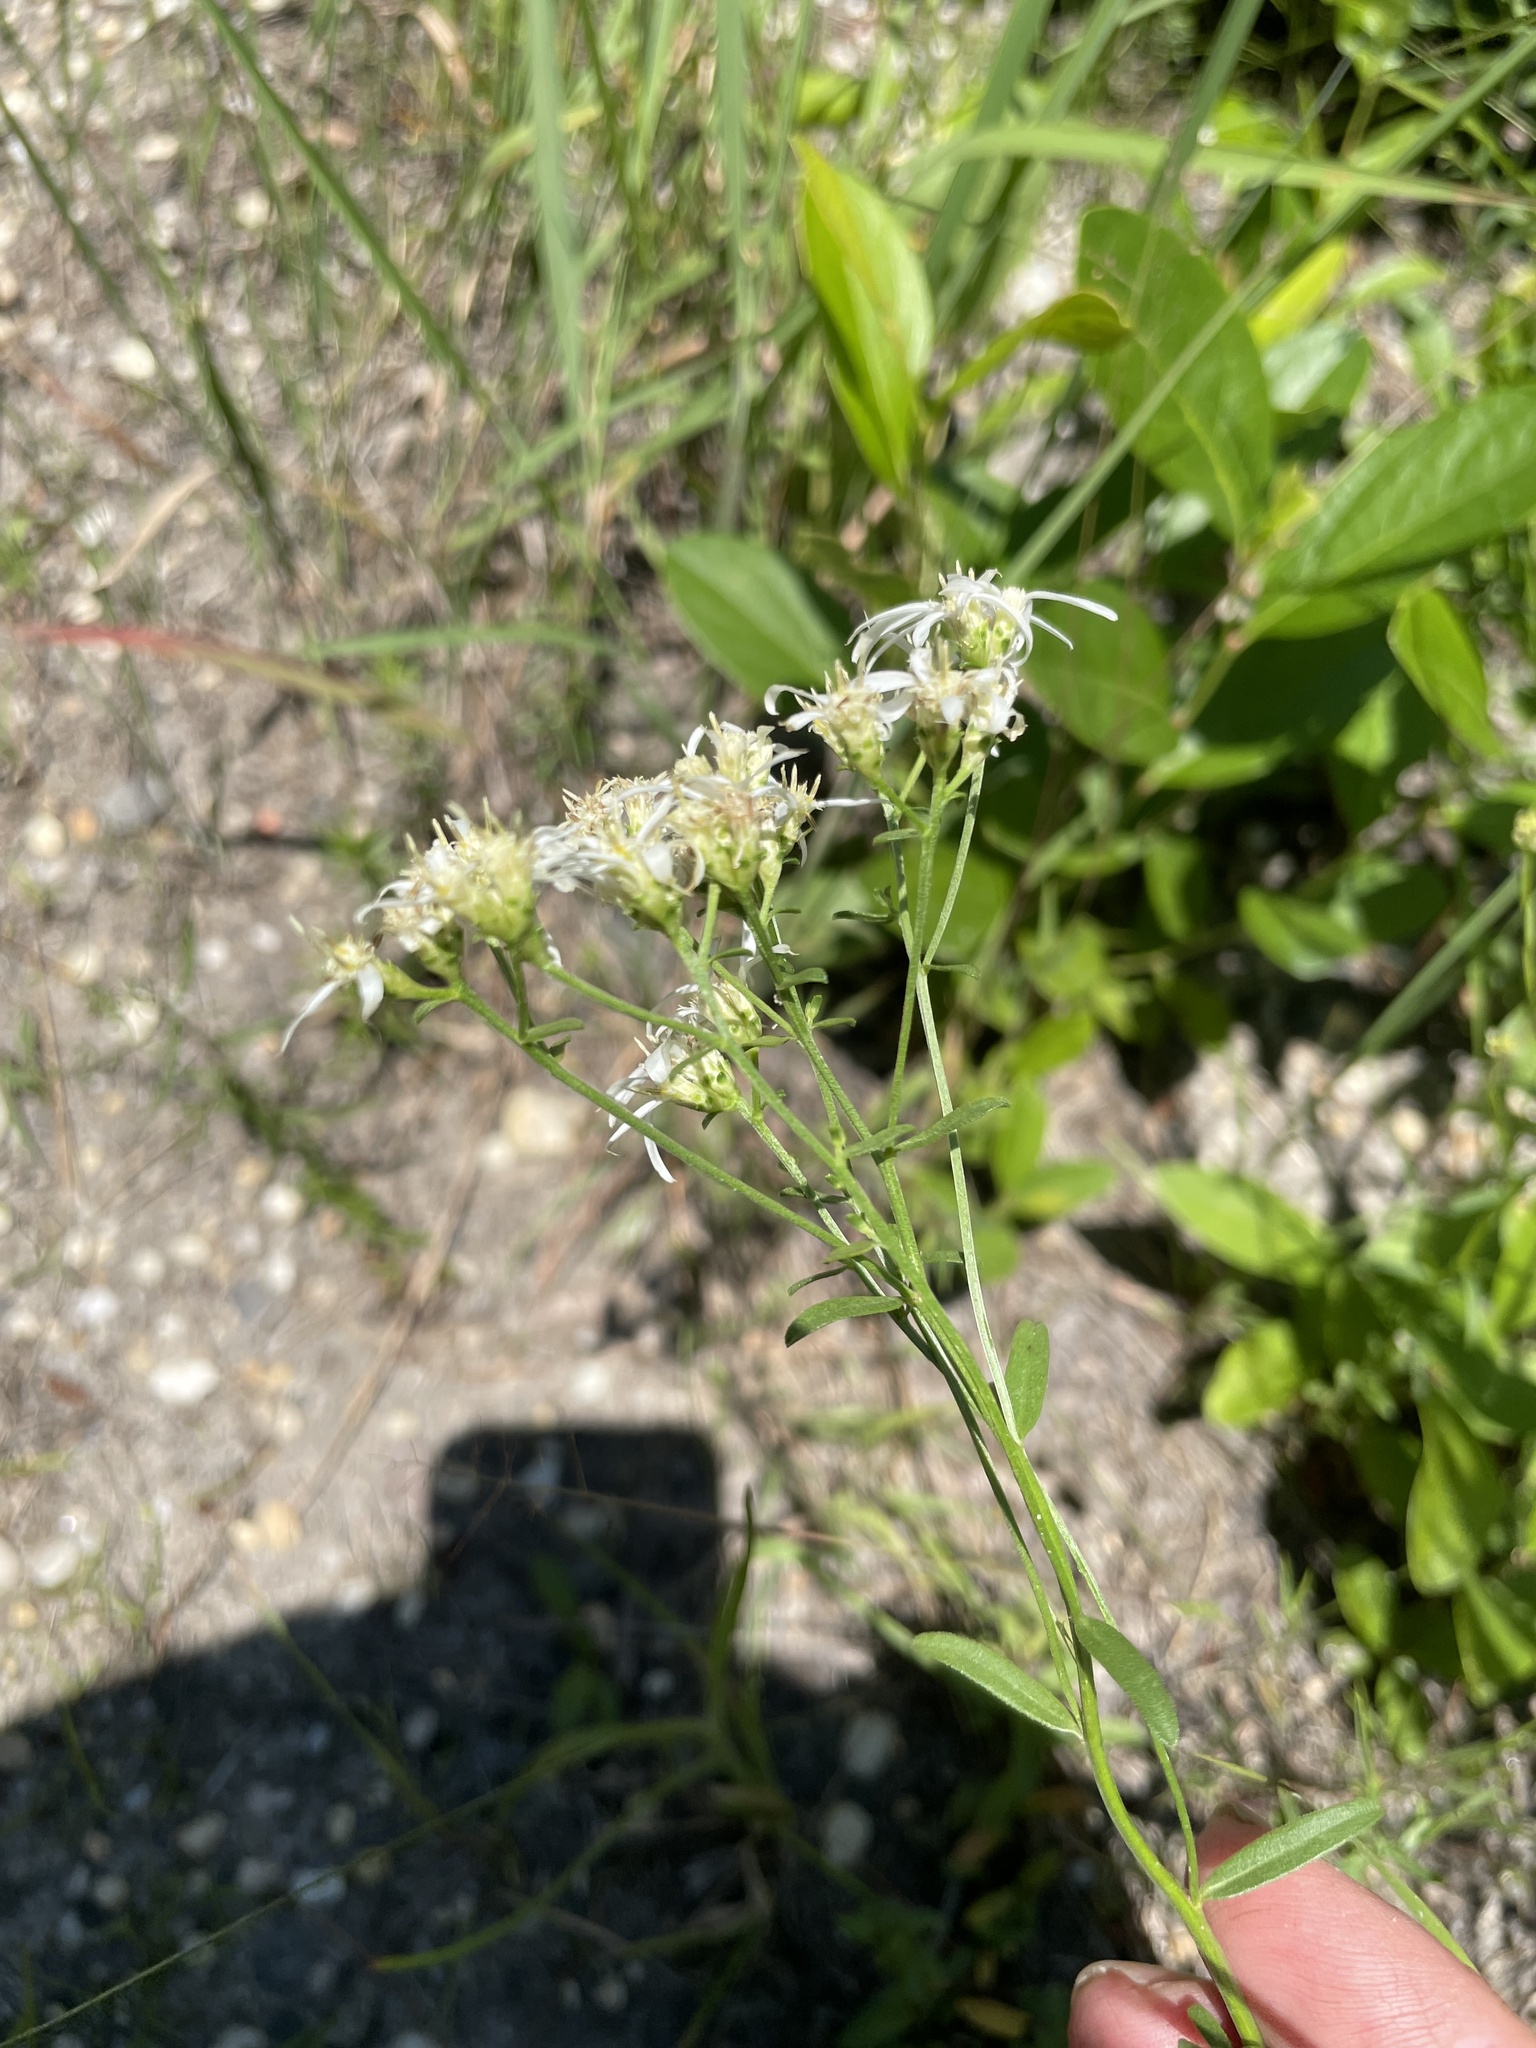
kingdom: Animalia
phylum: Arthropoda
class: Insecta
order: Hymenoptera
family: Megachilidae
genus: Osmia
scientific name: Osmia felti
